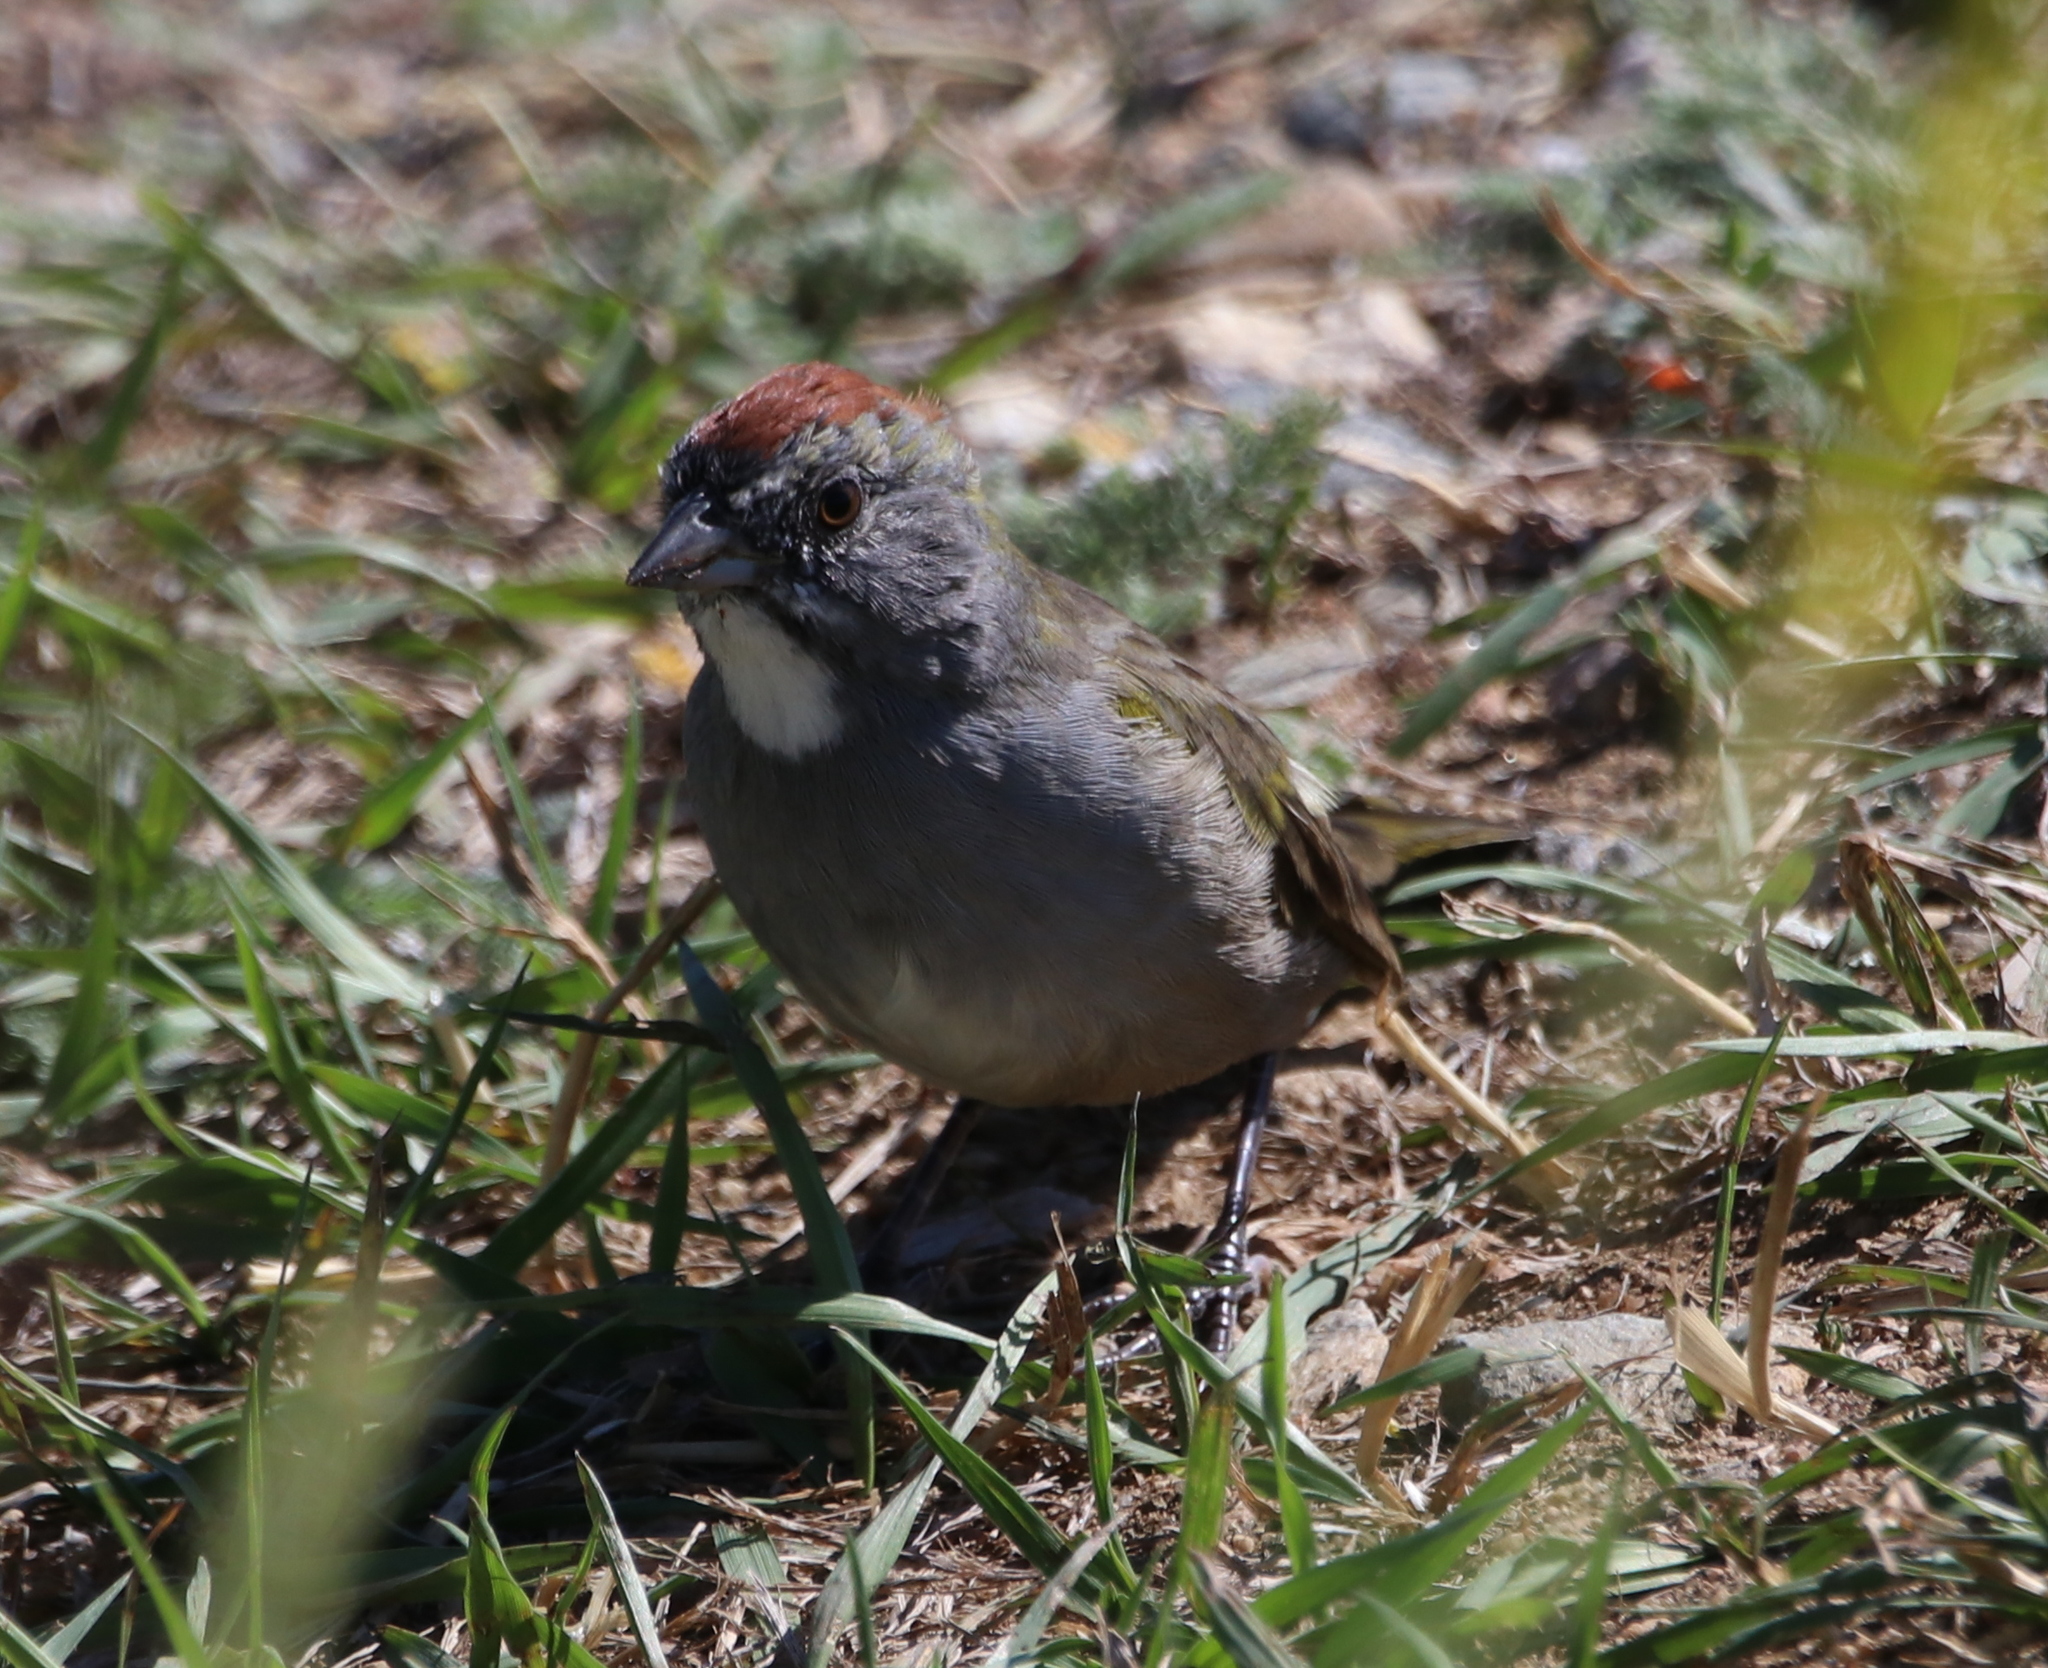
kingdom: Animalia
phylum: Chordata
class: Aves
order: Passeriformes
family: Passerellidae
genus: Pipilo
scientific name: Pipilo chlorurus
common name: Green-tailed towhee
